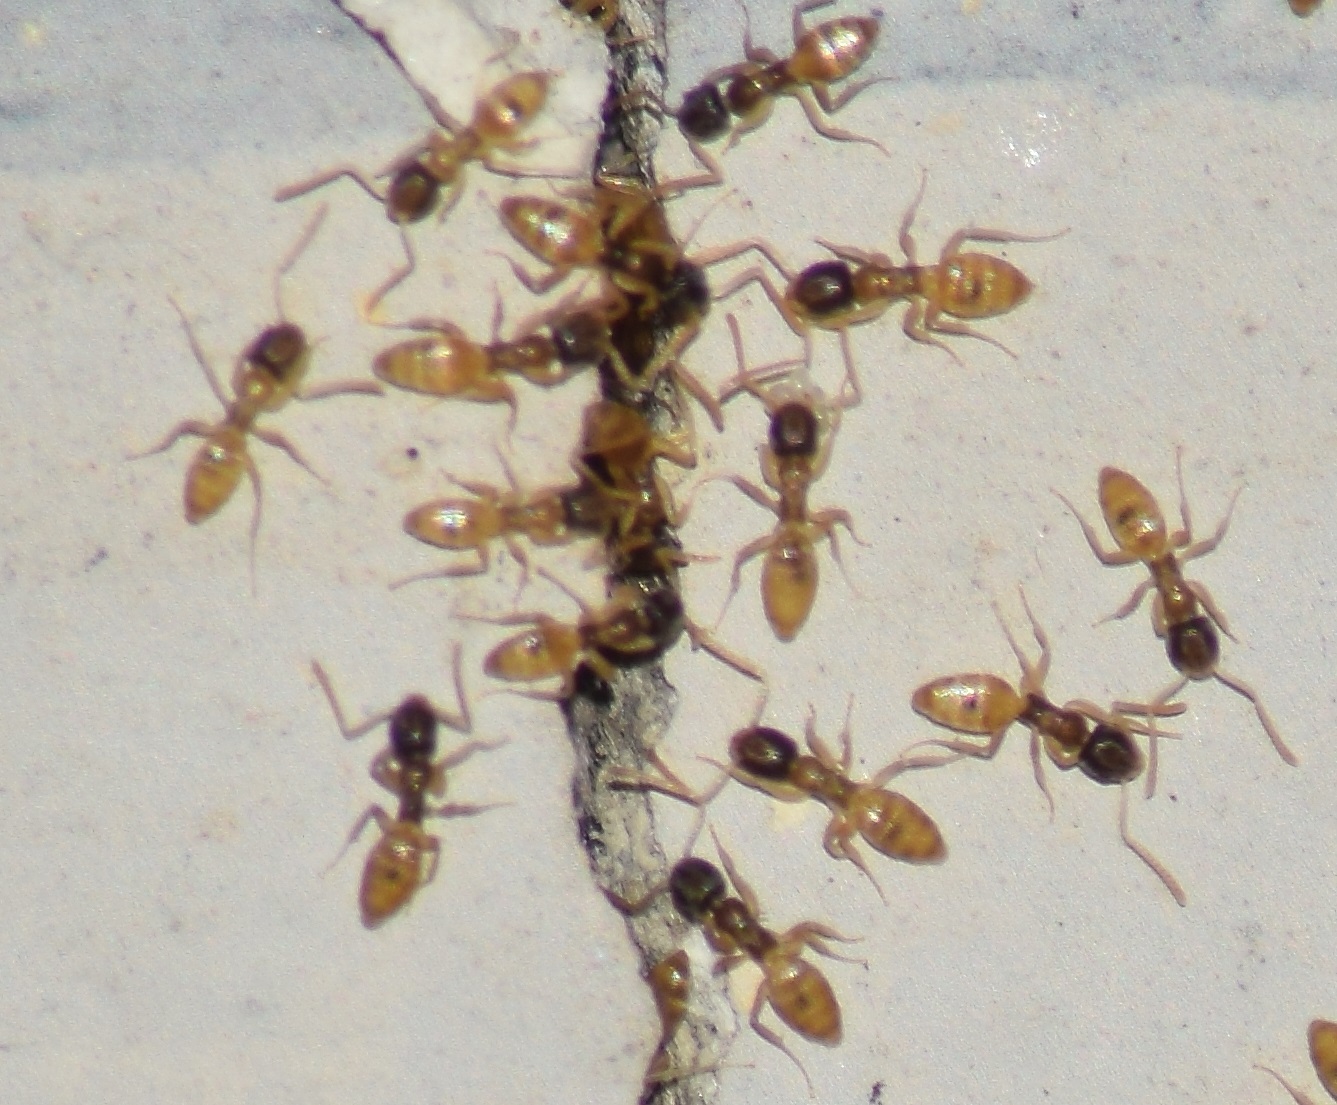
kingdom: Animalia
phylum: Arthropoda
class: Insecta
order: Hymenoptera
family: Formicidae
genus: Tapinoma
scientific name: Tapinoma melanocephalum
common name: Ghost ant
